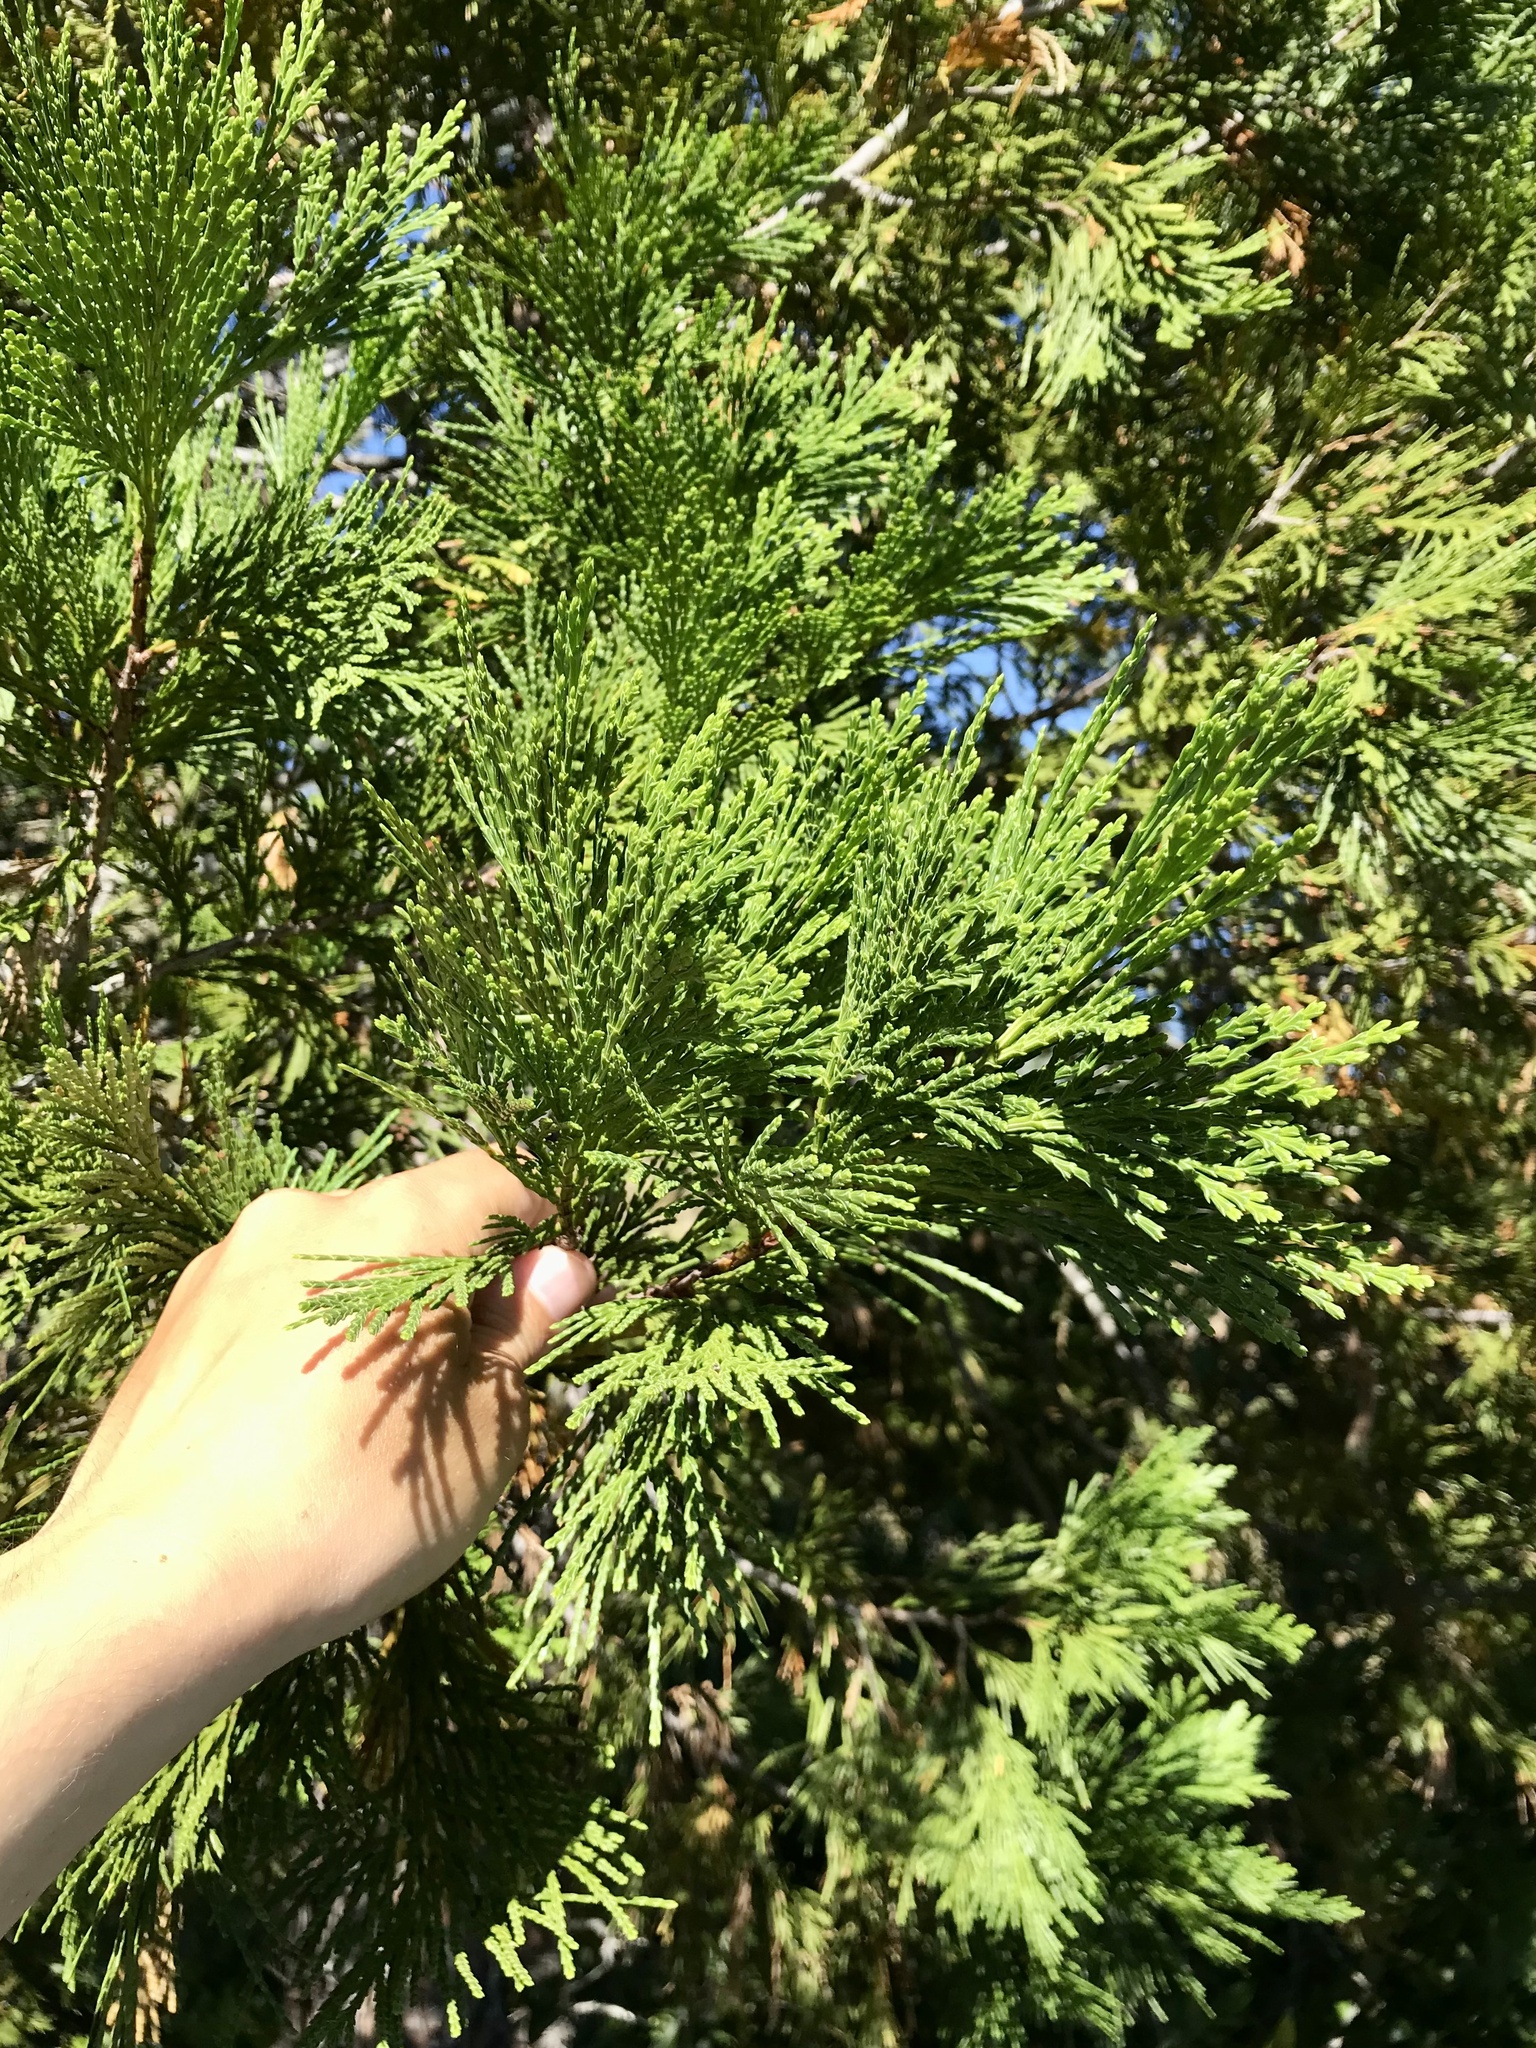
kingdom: Plantae
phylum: Tracheophyta
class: Pinopsida
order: Pinales
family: Cupressaceae
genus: Calocedrus
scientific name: Calocedrus decurrens
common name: Californian incense-cedar
